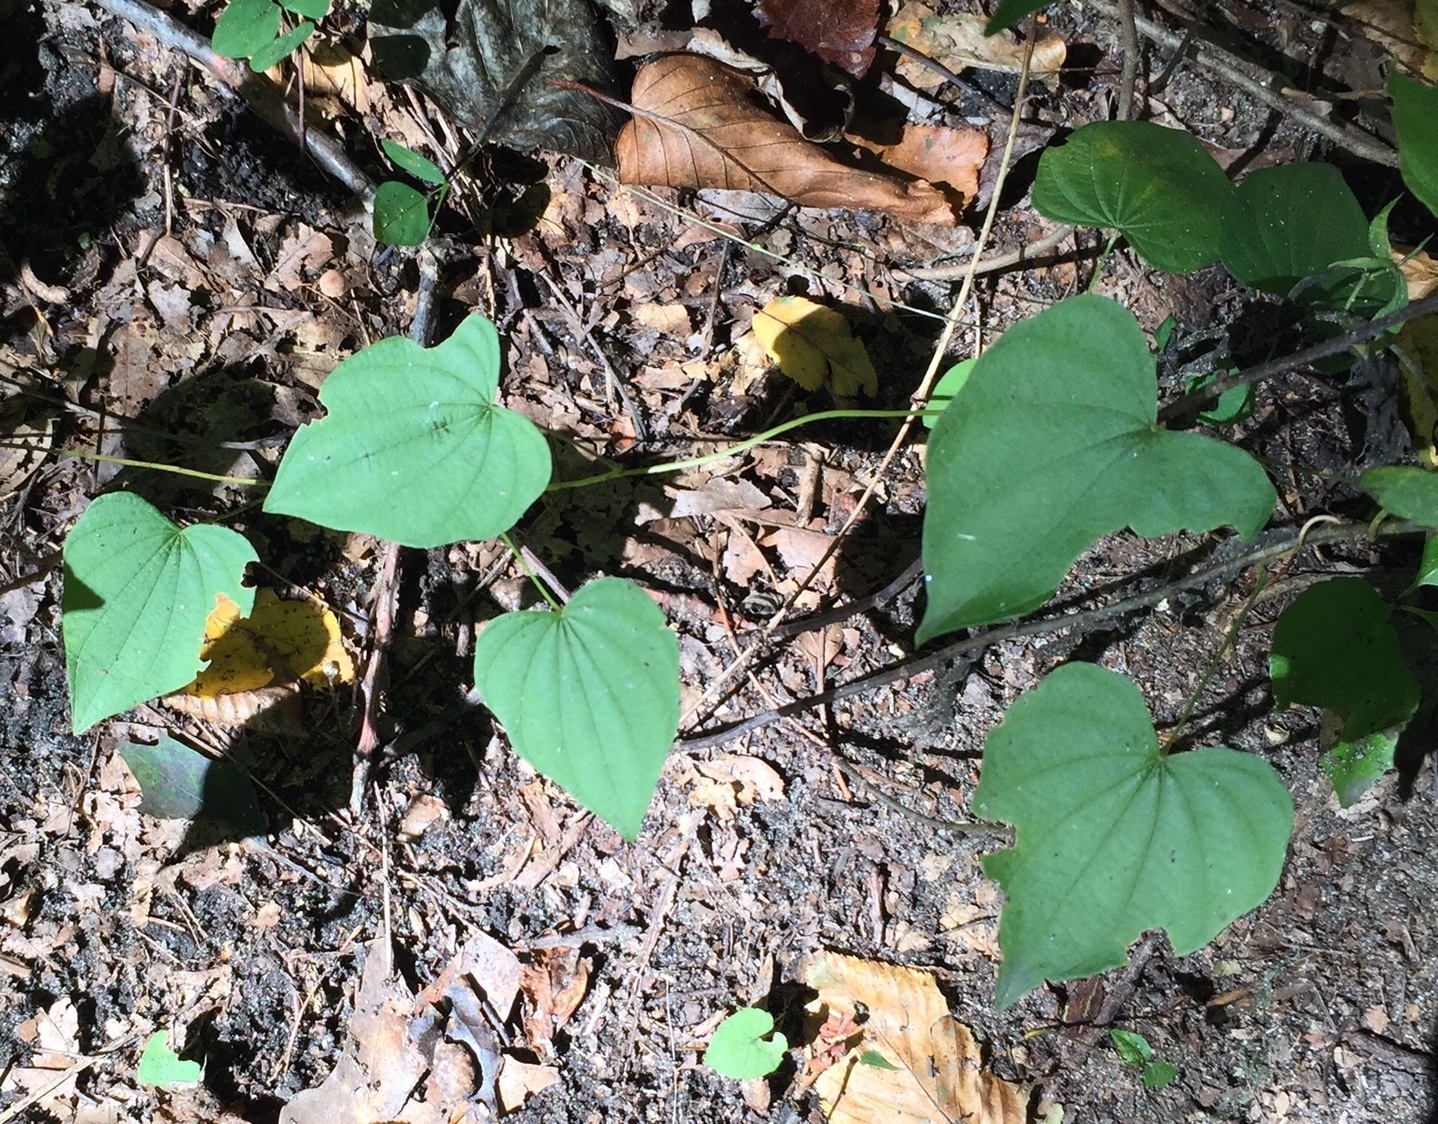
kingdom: Plantae
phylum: Tracheophyta
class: Liliopsida
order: Dioscoreales
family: Dioscoreaceae
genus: Dioscorea
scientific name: Dioscorea villosa
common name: Wild yam
